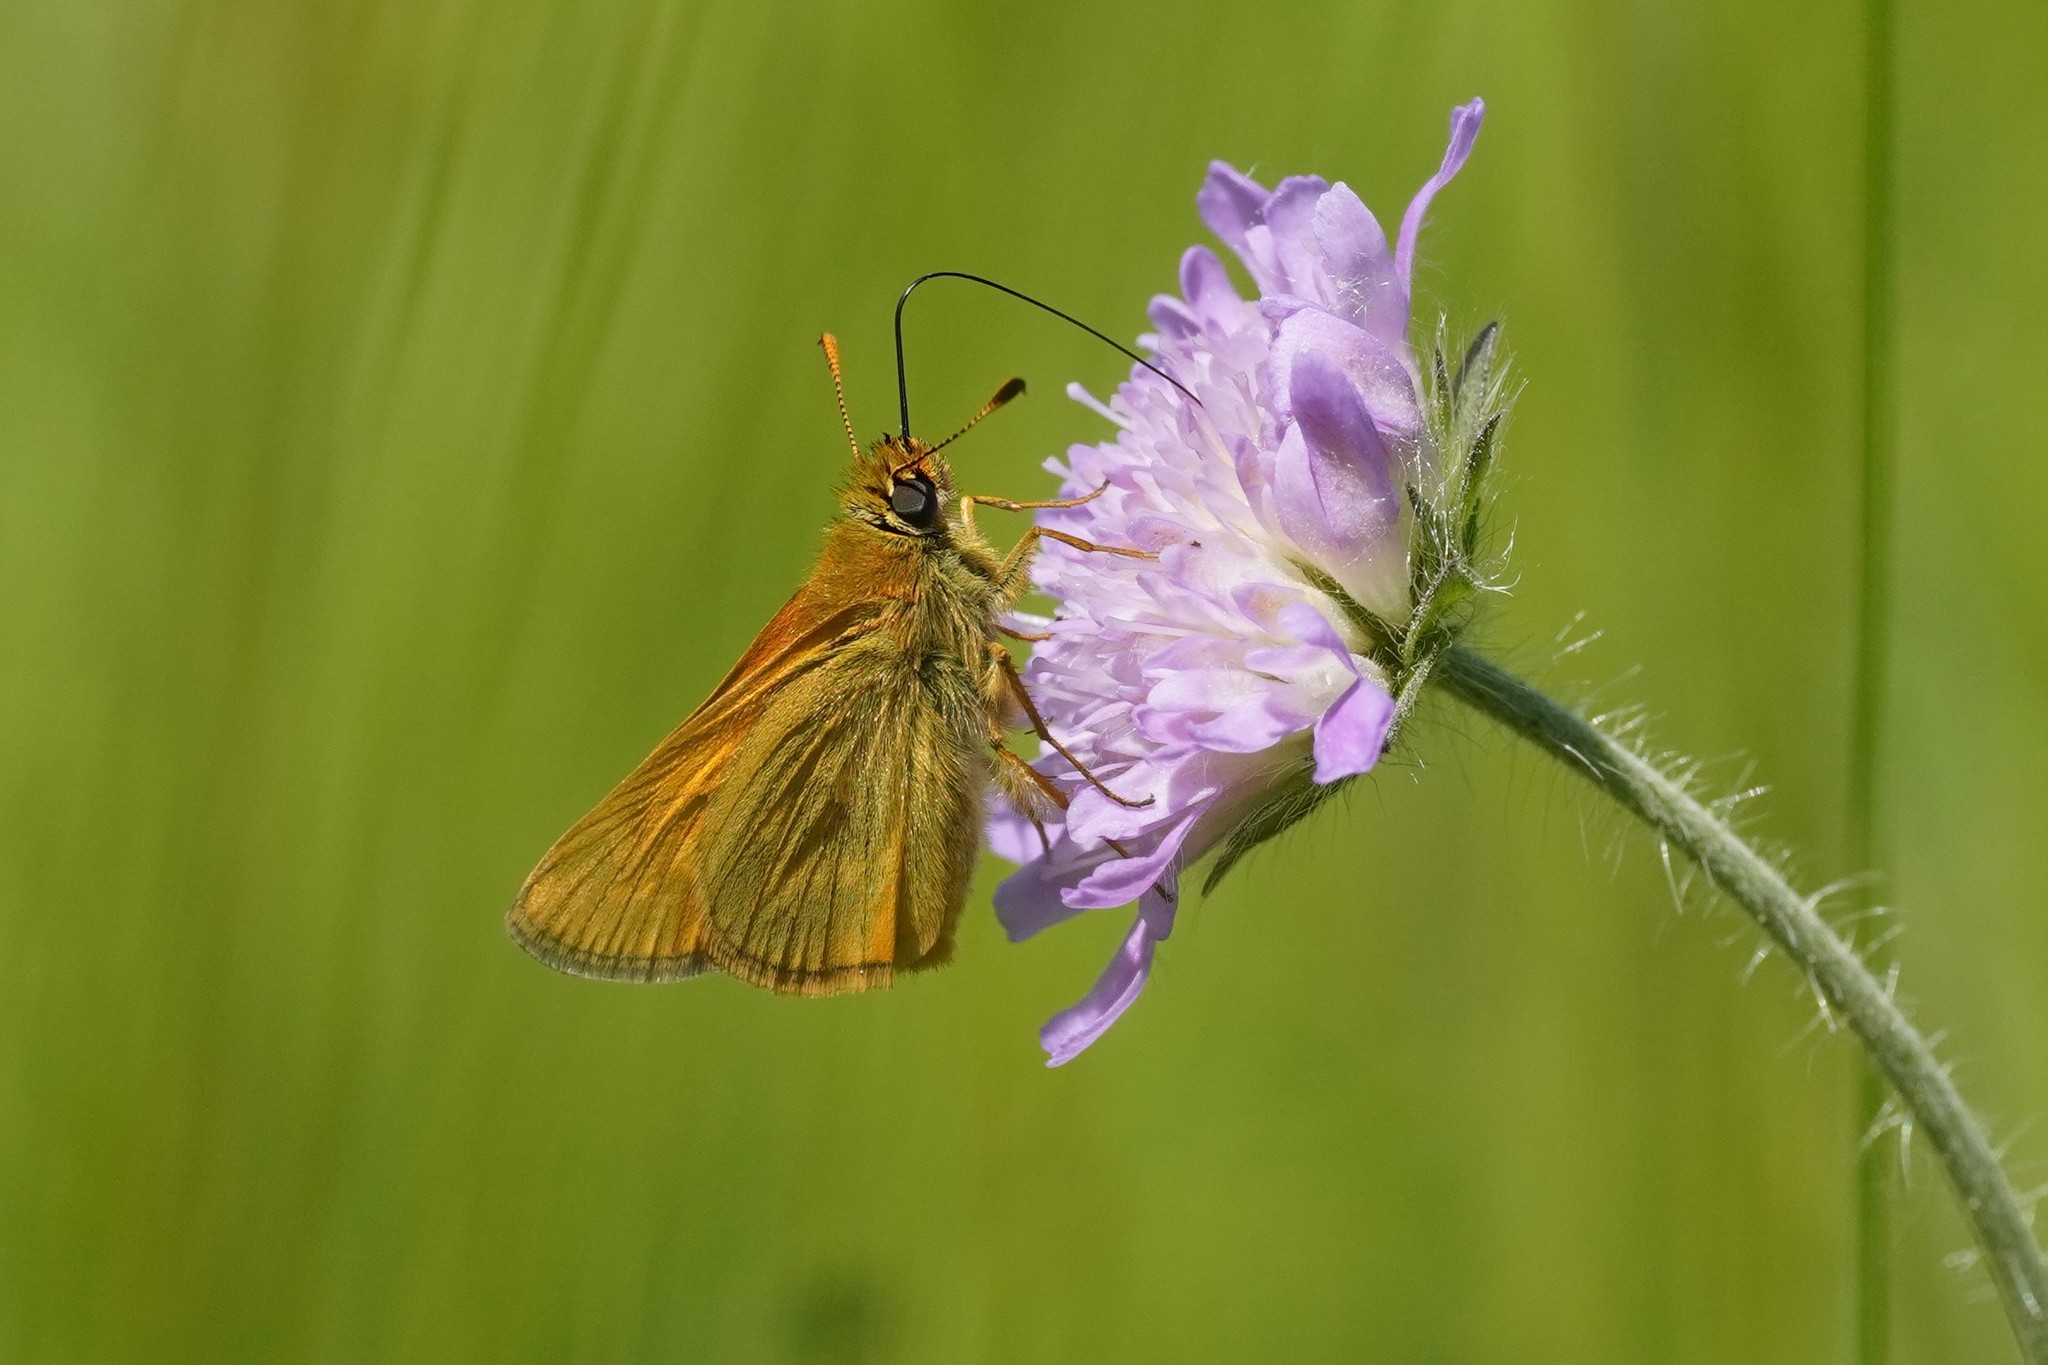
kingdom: Animalia
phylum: Arthropoda
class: Insecta
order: Lepidoptera
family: Hesperiidae
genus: Ochlodes
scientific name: Ochlodes venata
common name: Large skipper
